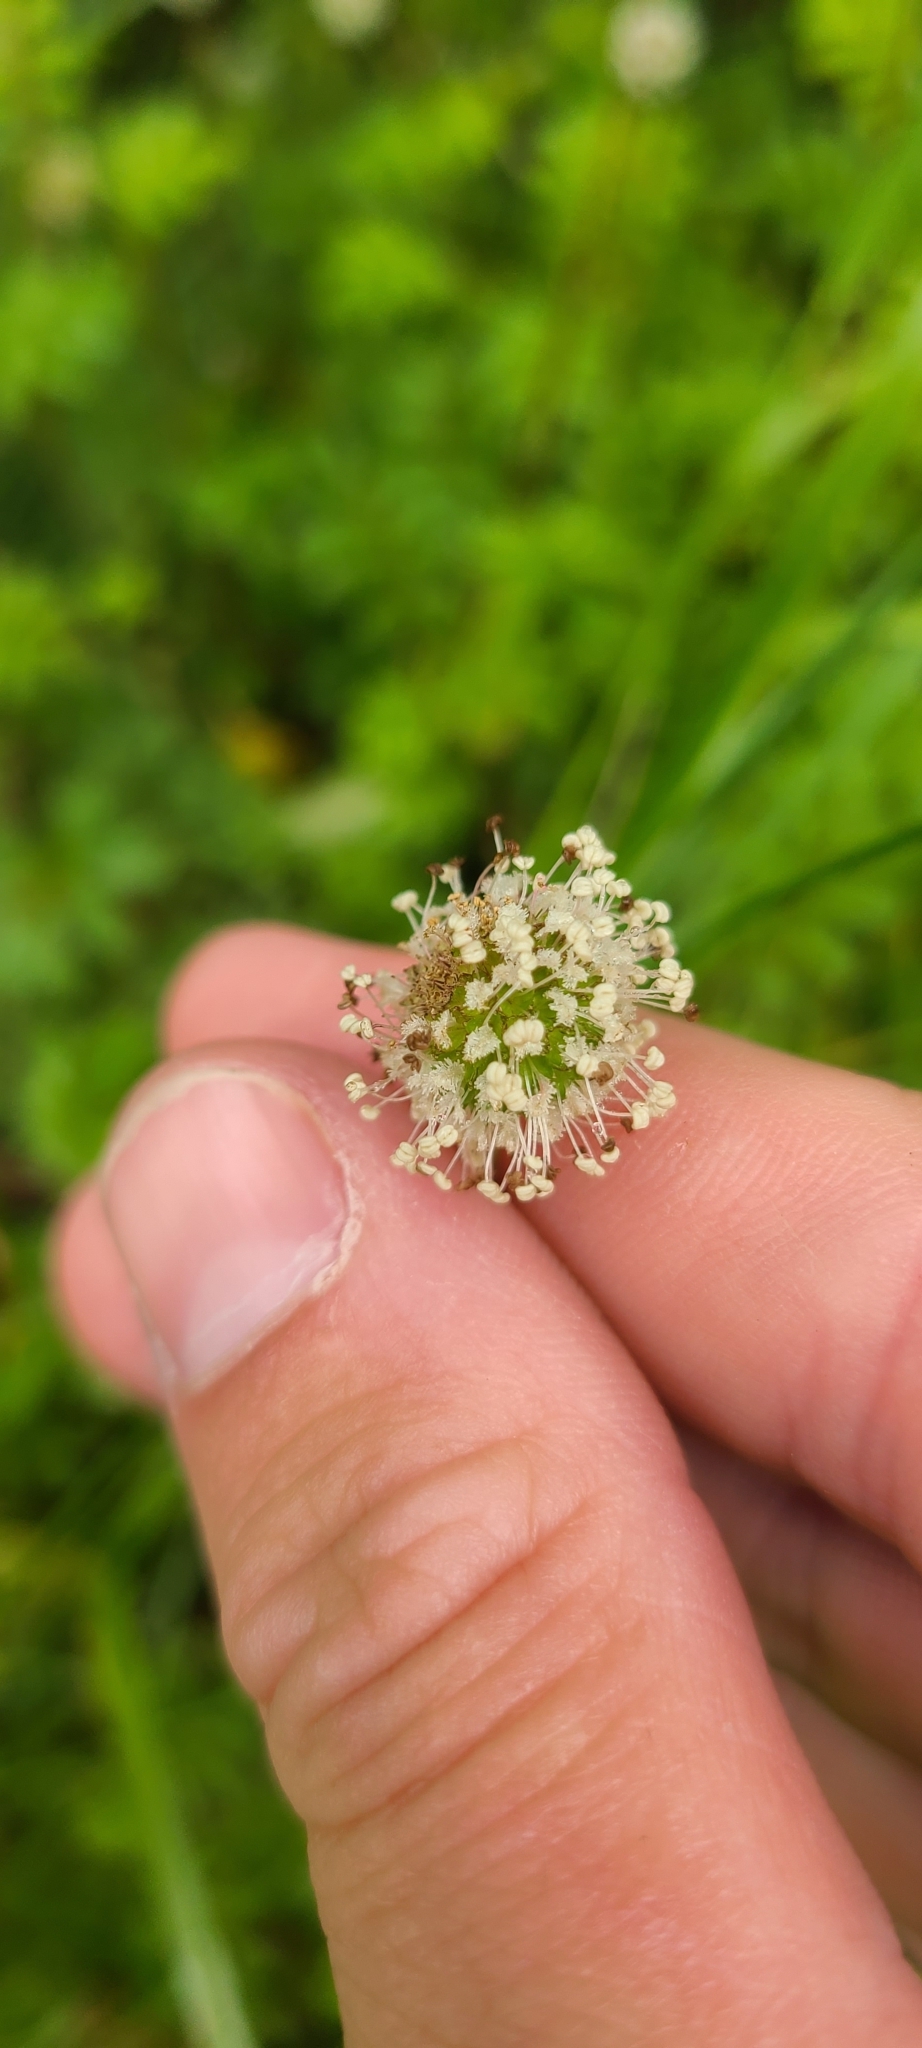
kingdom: Plantae
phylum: Tracheophyta
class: Magnoliopsida
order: Rosales
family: Rosaceae
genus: Acaena
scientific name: Acaena anserinifolia
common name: Bronze pirri-pirri-bur
